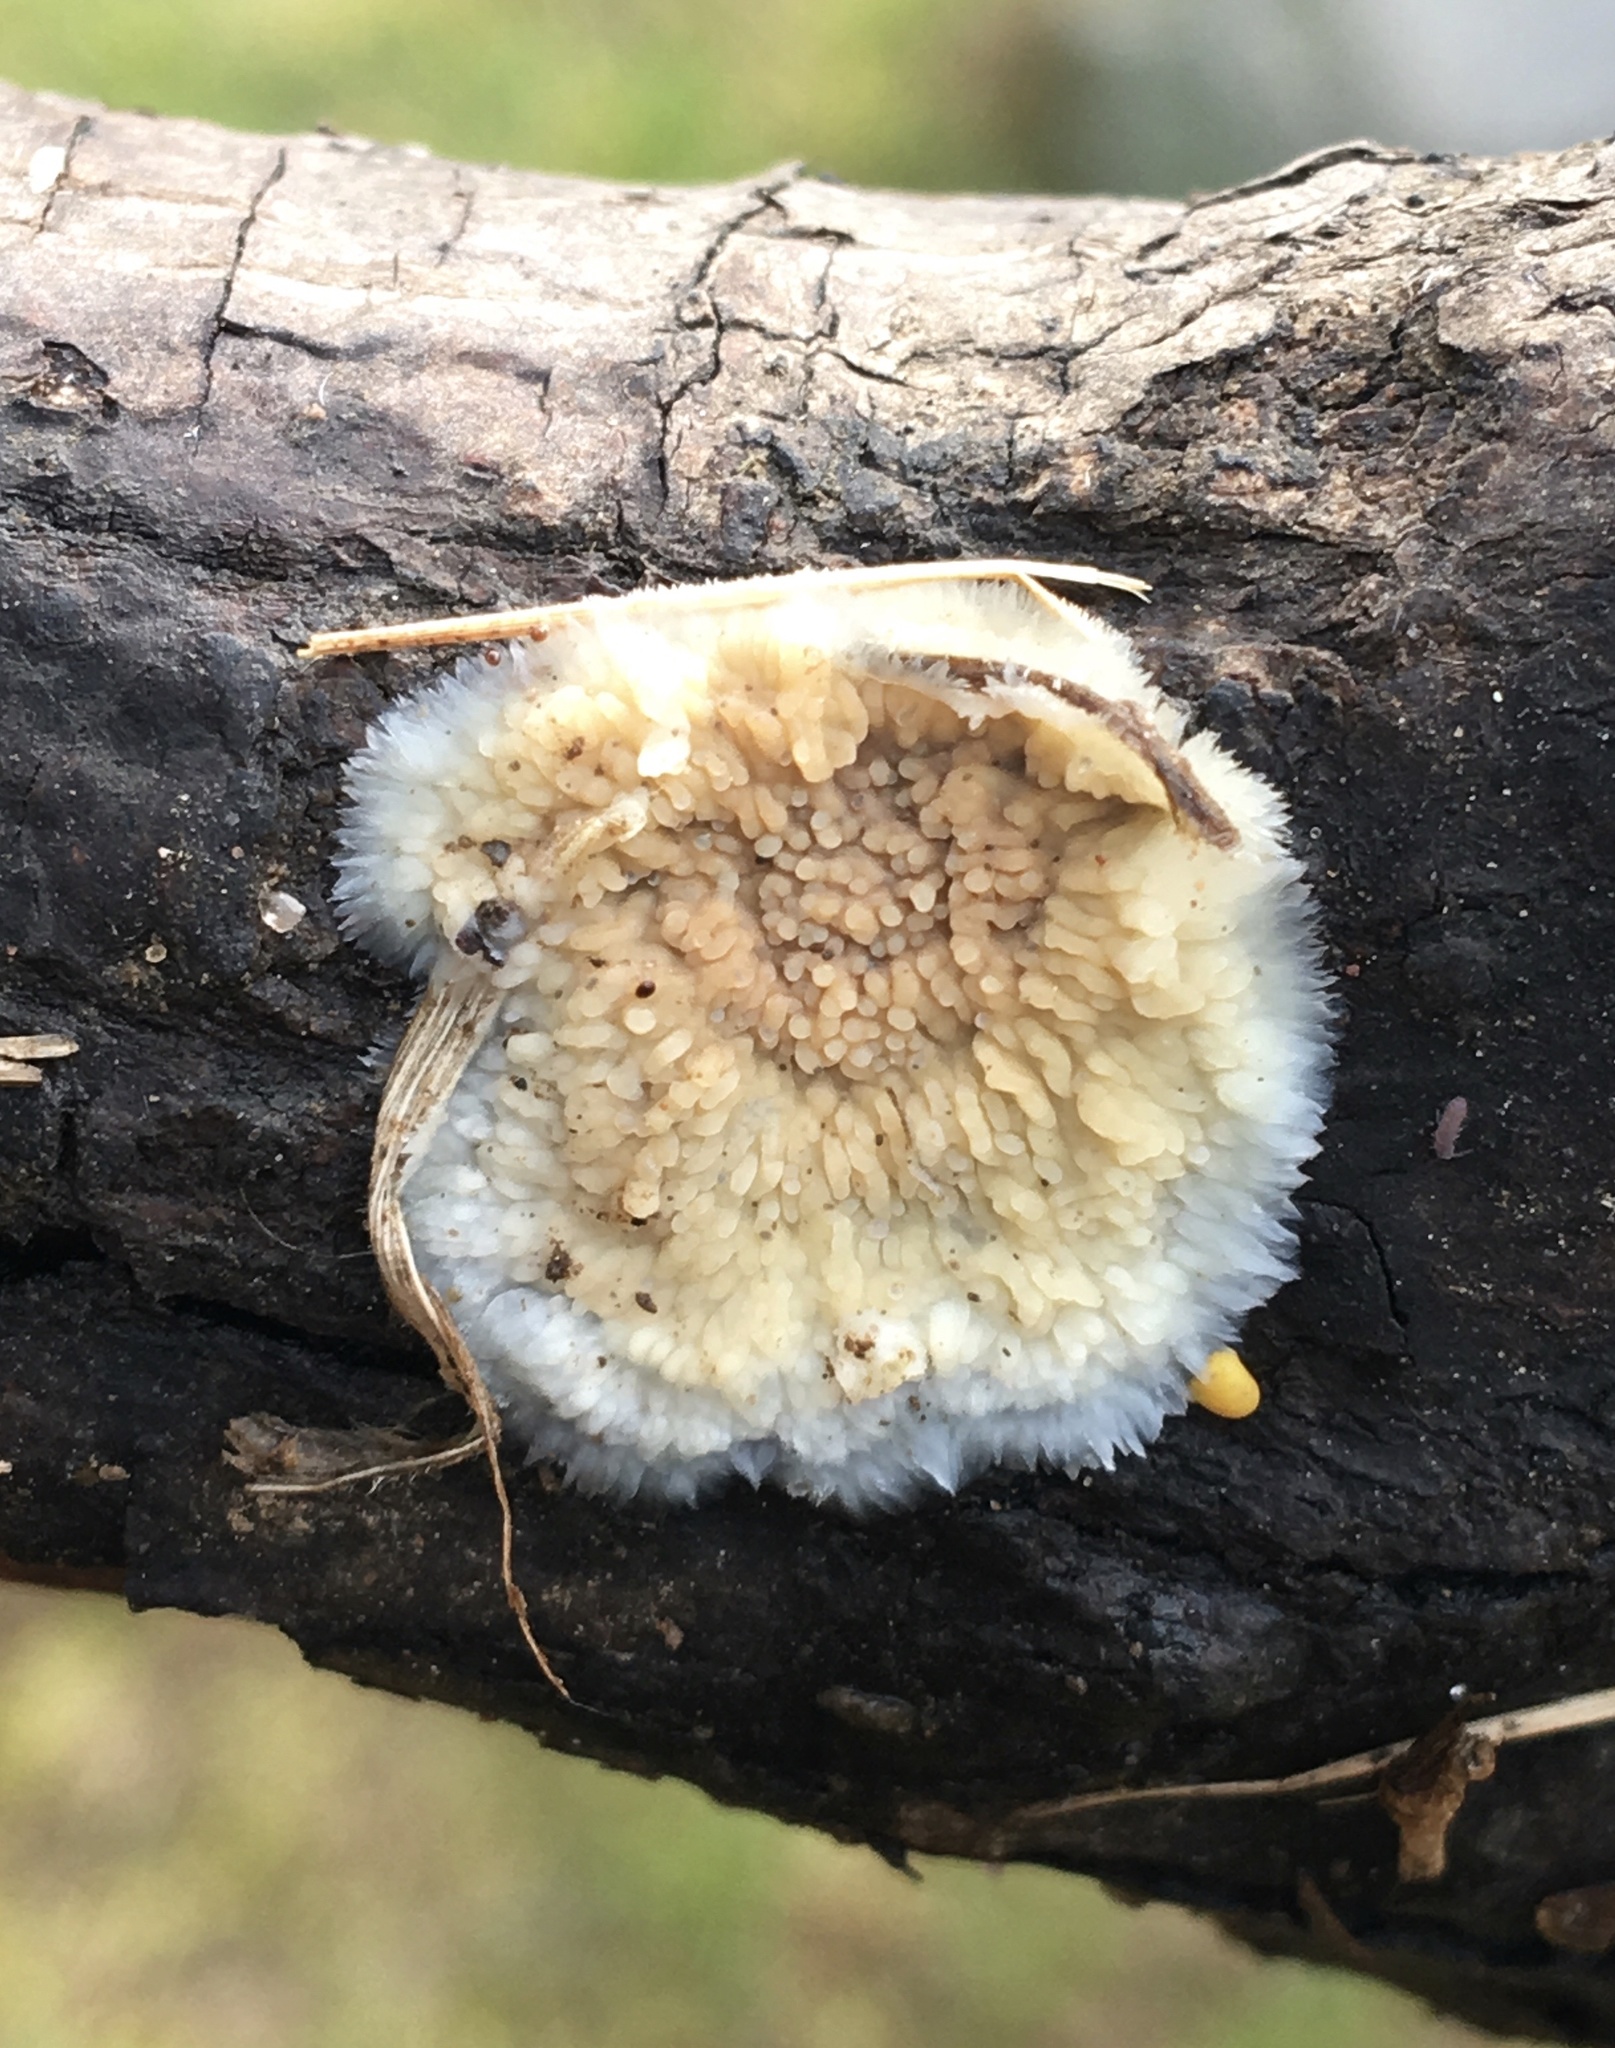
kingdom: Fungi
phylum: Basidiomycota
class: Agaricomycetes
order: Polyporales
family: Meruliaceae
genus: Phlebia
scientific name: Phlebia tremellosa
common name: Jelly rot
